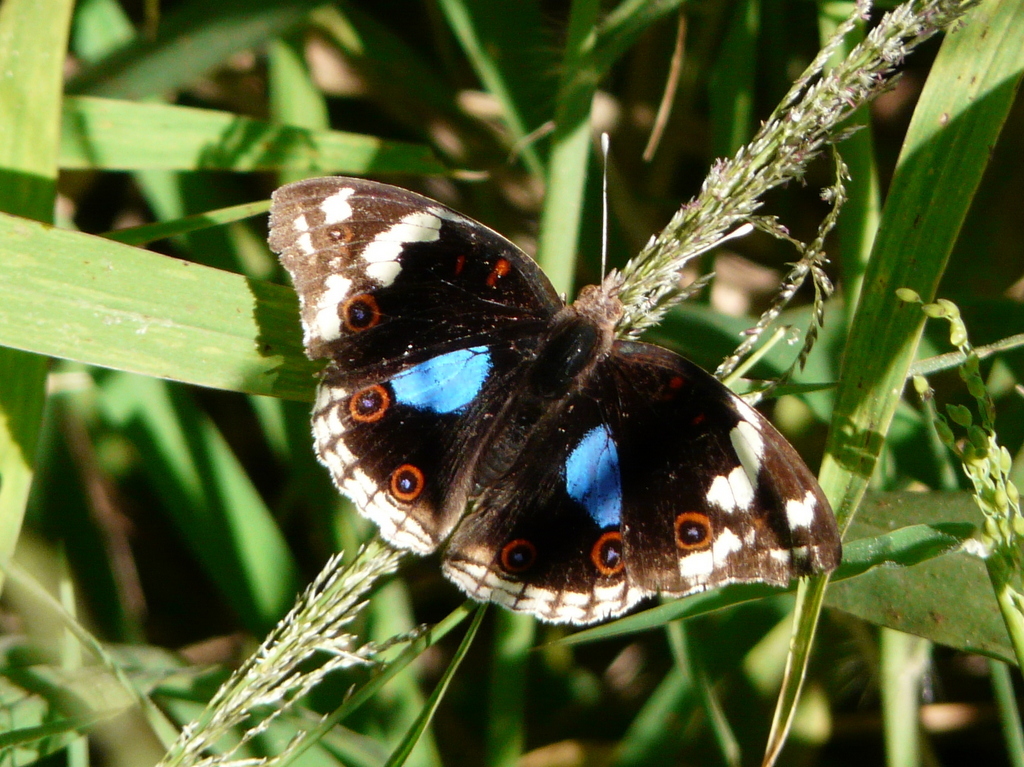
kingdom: Animalia
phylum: Arthropoda
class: Insecta
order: Lepidoptera
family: Nymphalidae
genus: Junonia
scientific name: Junonia oenone
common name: Dark blue pansy
